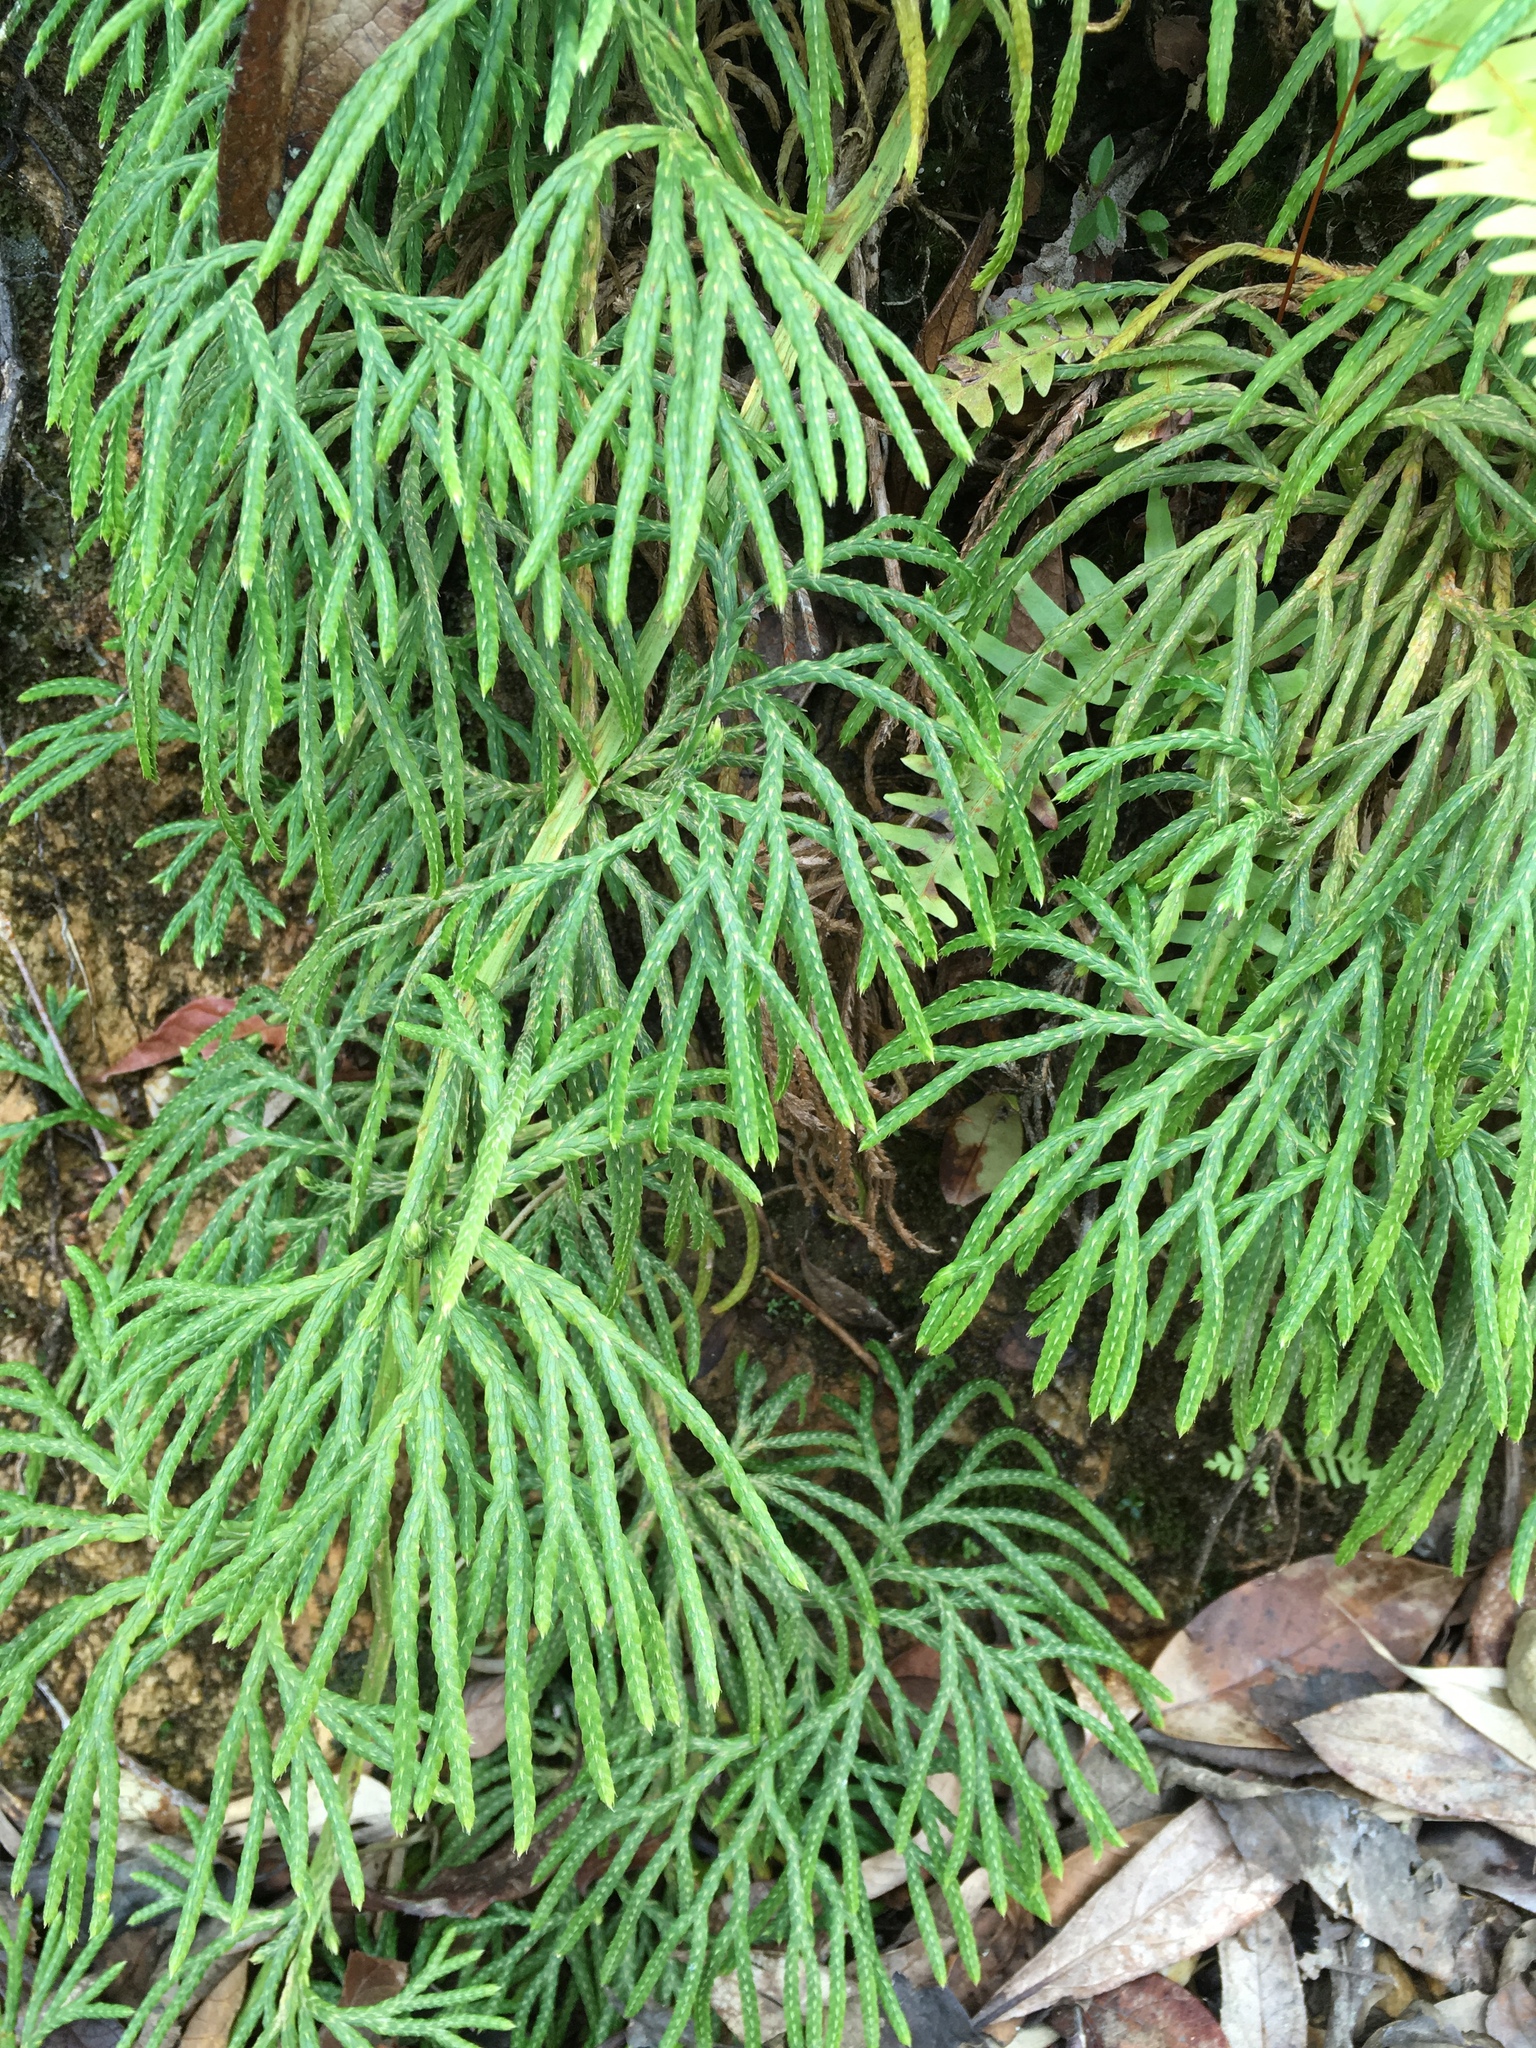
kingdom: Plantae
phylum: Tracheophyta
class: Lycopodiopsida
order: Lycopodiales
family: Lycopodiaceae
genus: Diphasiastrum
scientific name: Diphasiastrum complanatum
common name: Northern running-pine
